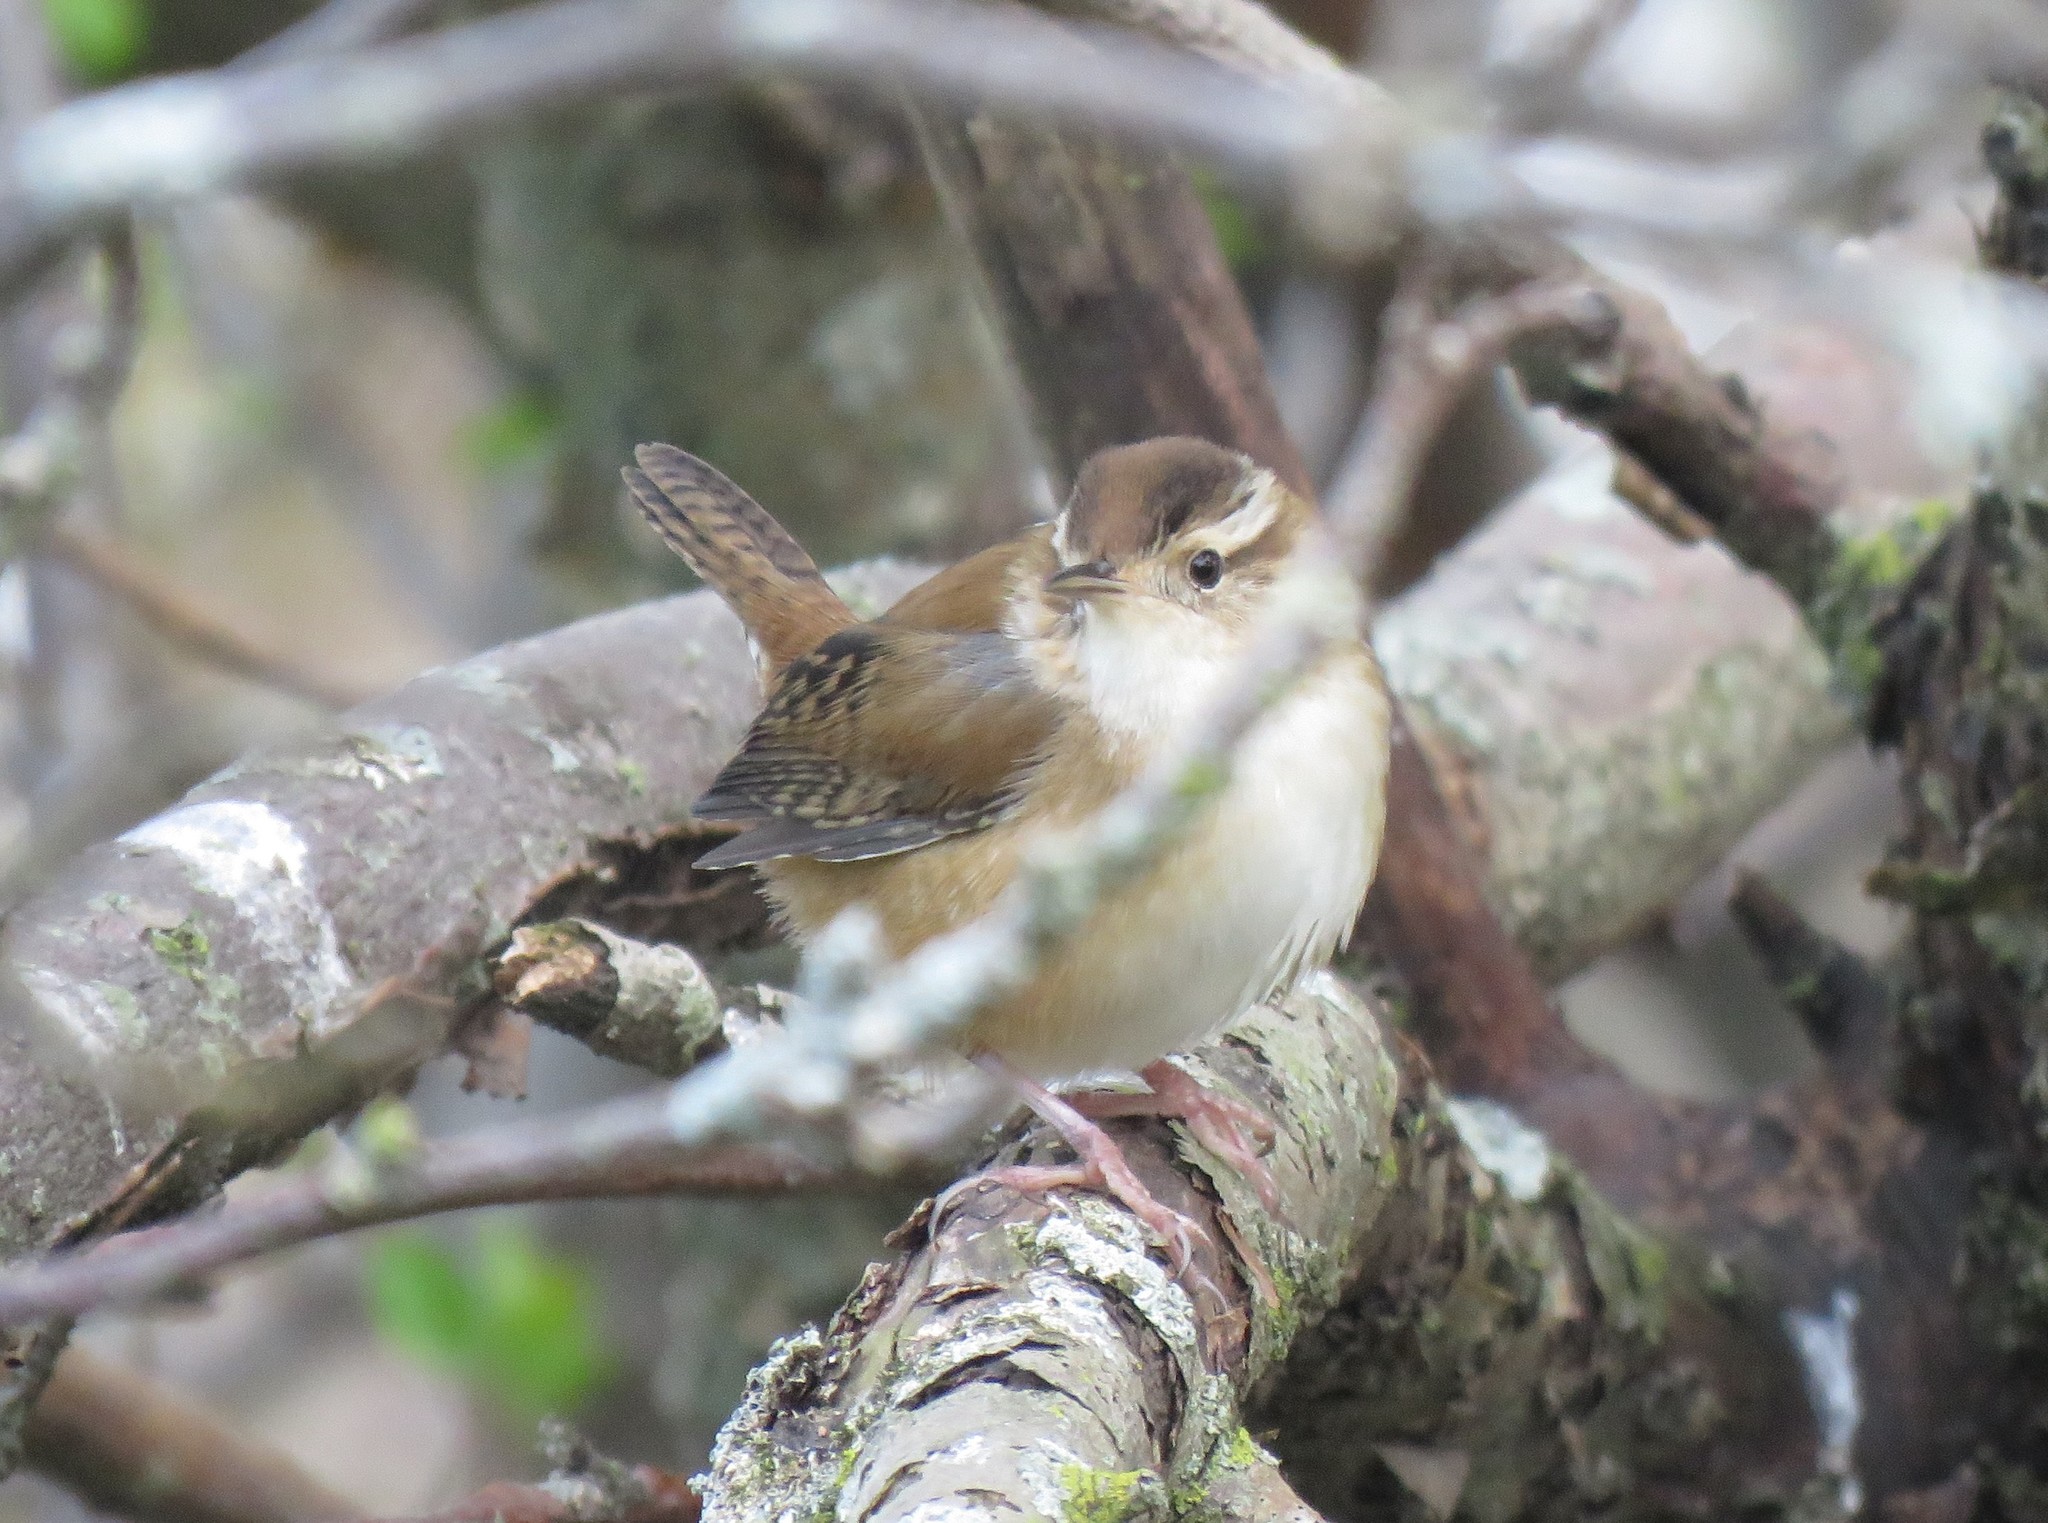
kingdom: Animalia
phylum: Chordata
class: Aves
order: Passeriformes
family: Troglodytidae
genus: Cistothorus
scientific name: Cistothorus palustris
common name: Marsh wren
